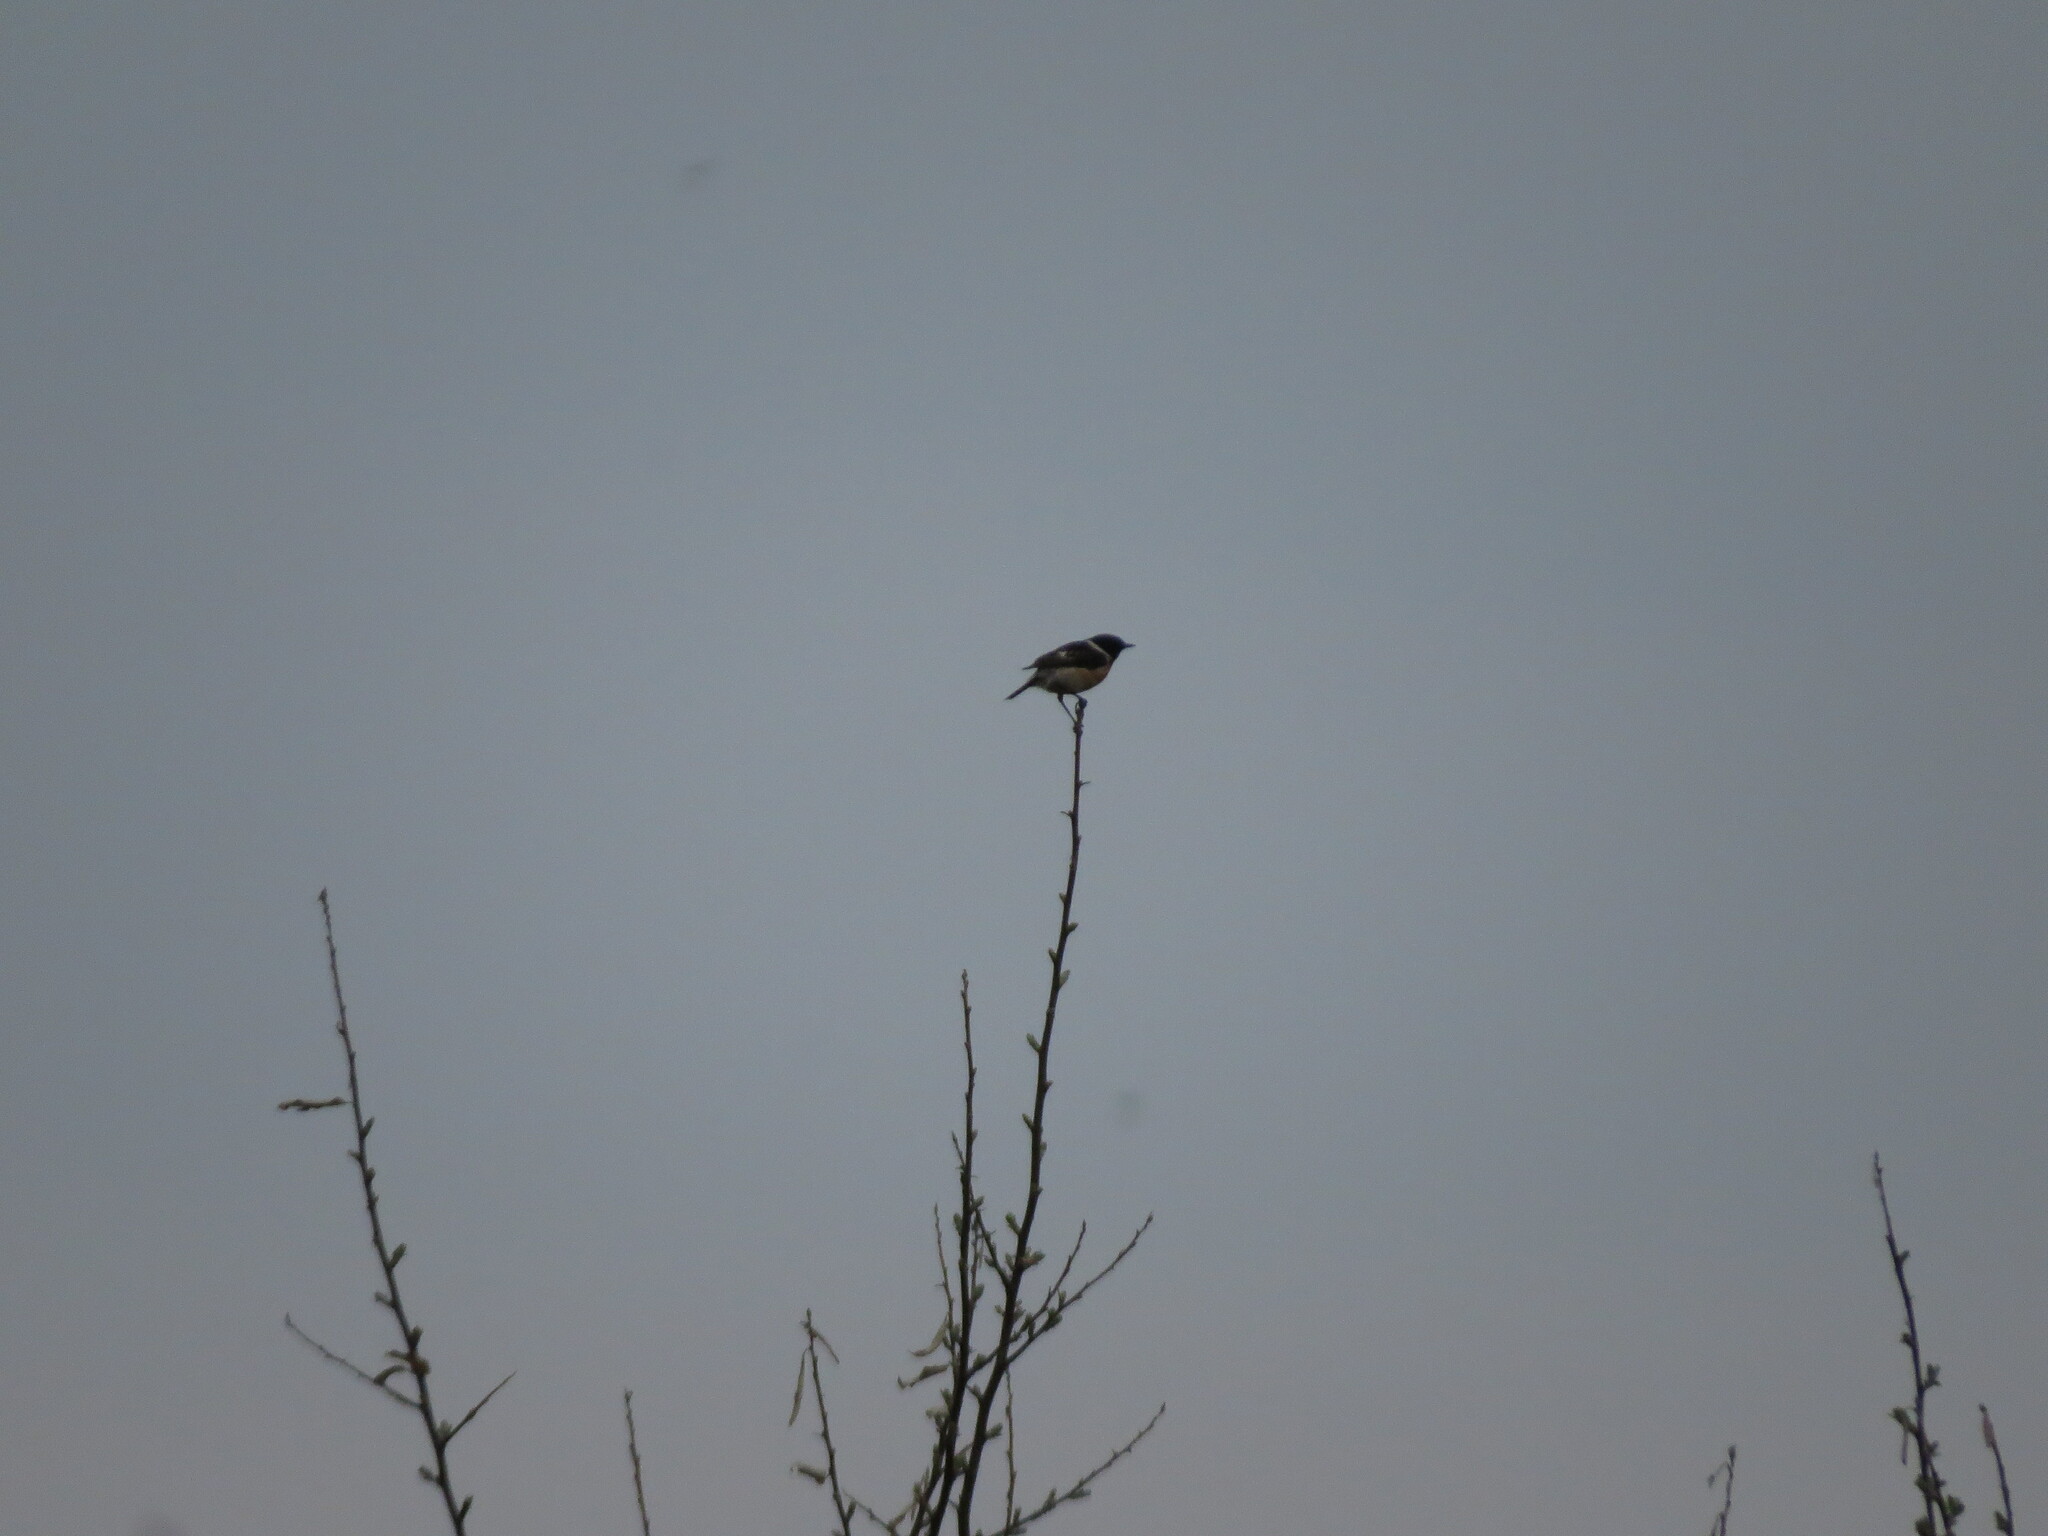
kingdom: Animalia
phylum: Chordata
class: Aves
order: Passeriformes
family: Muscicapidae
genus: Saxicola
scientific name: Saxicola maurus
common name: Siberian stonechat
